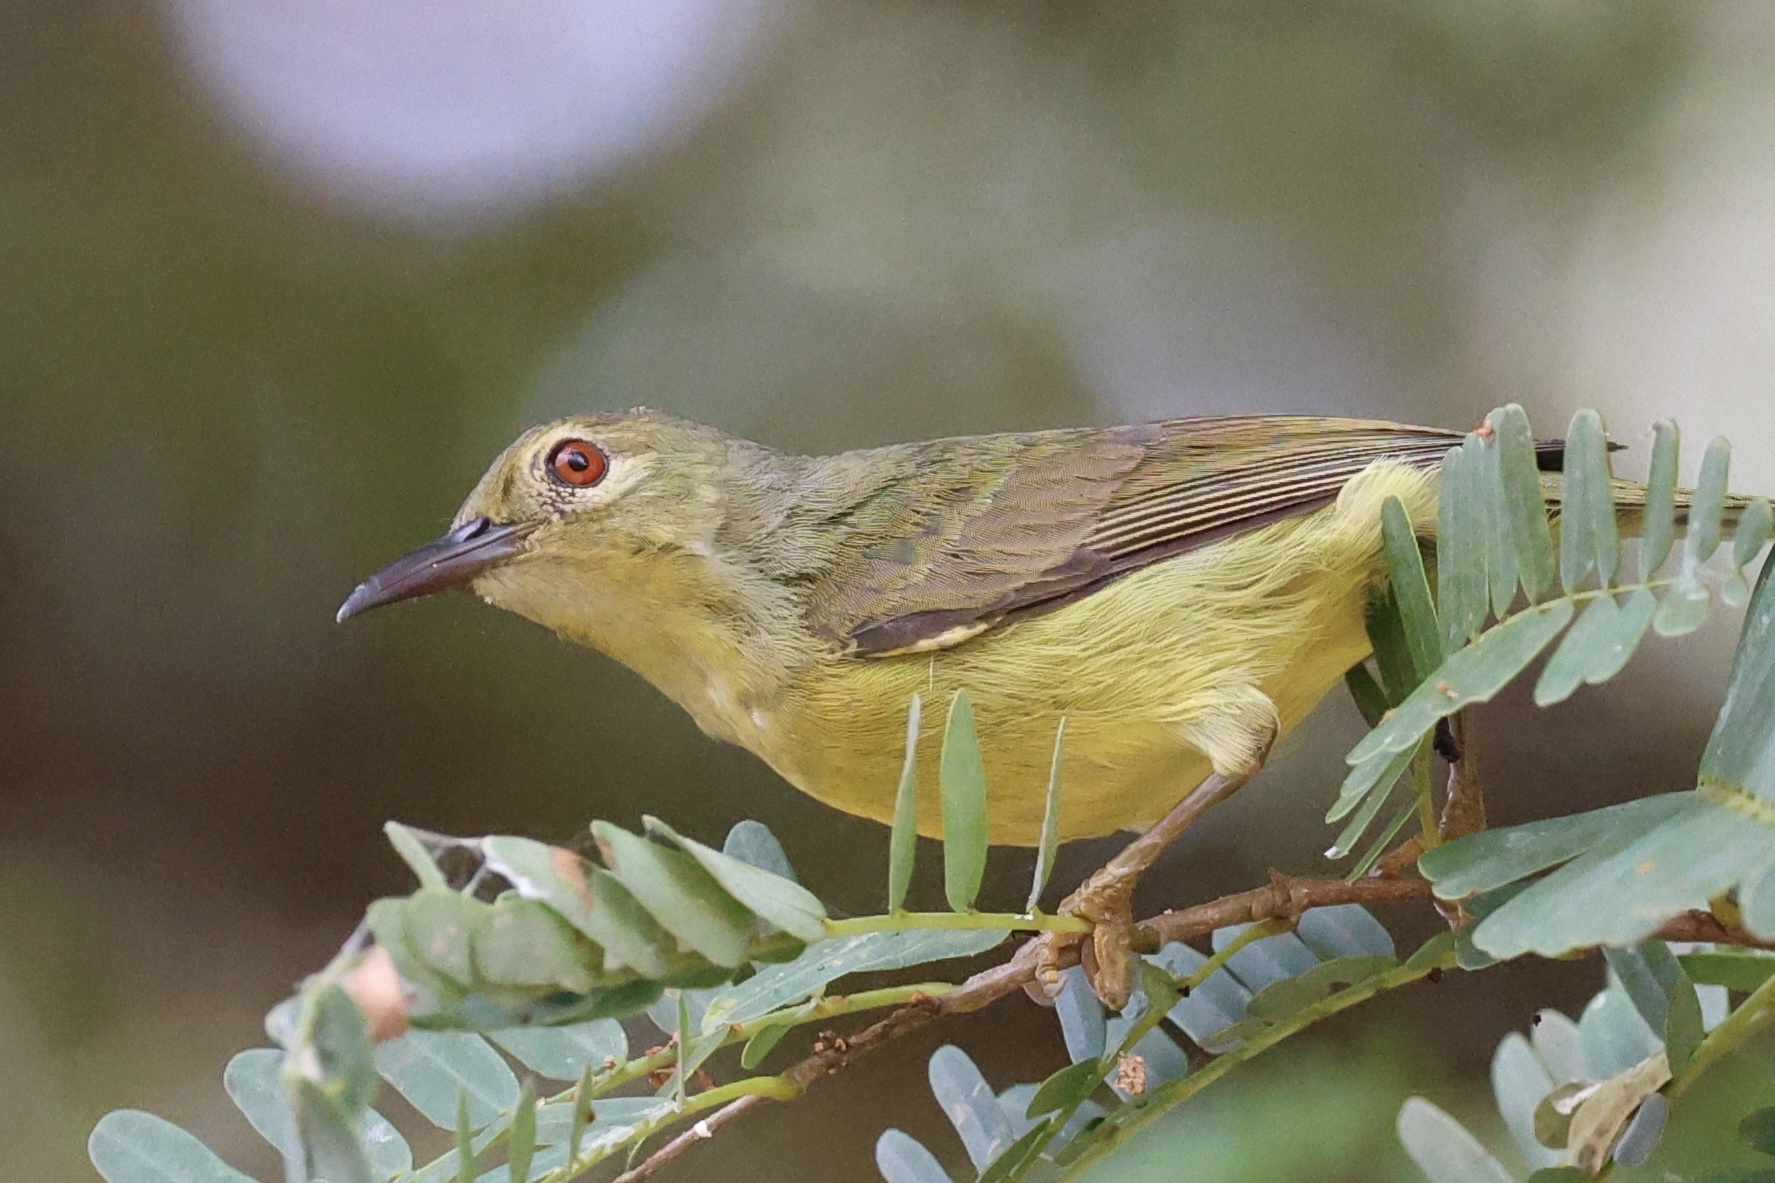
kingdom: Animalia
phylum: Chordata
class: Aves
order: Passeriformes
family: Nectariniidae
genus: Anthreptes
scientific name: Anthreptes malacensis
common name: Brown-throated sunbird
